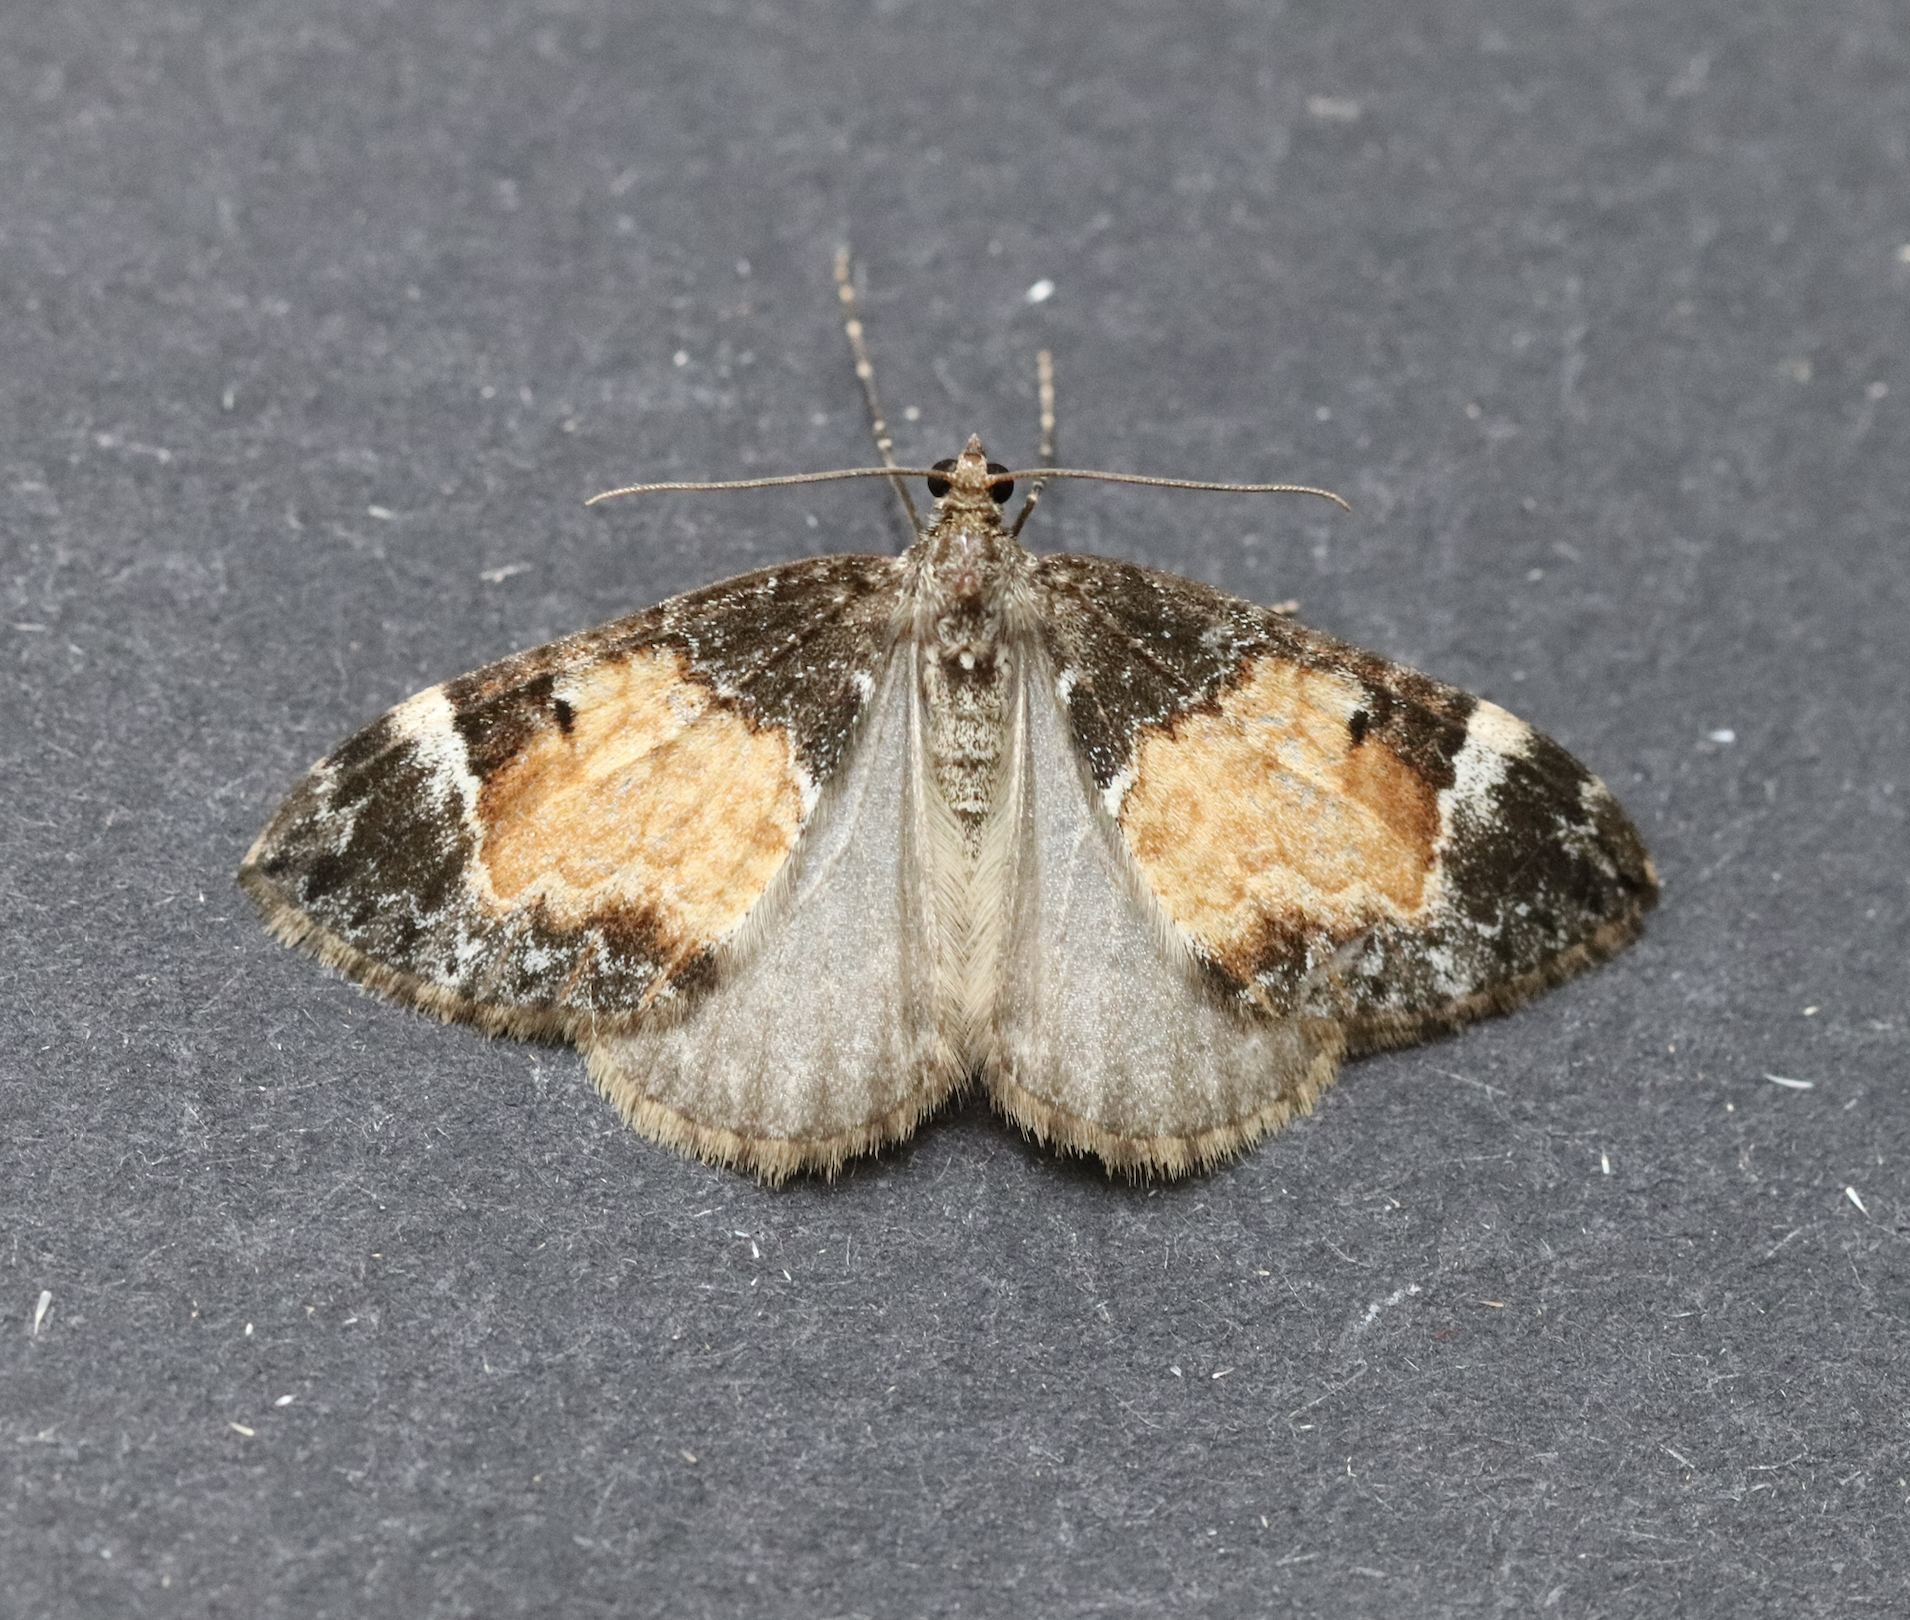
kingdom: Animalia
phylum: Arthropoda
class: Insecta
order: Lepidoptera
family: Geometridae
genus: Dysstroma
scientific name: Dysstroma truncata
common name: Common marbled carpet
